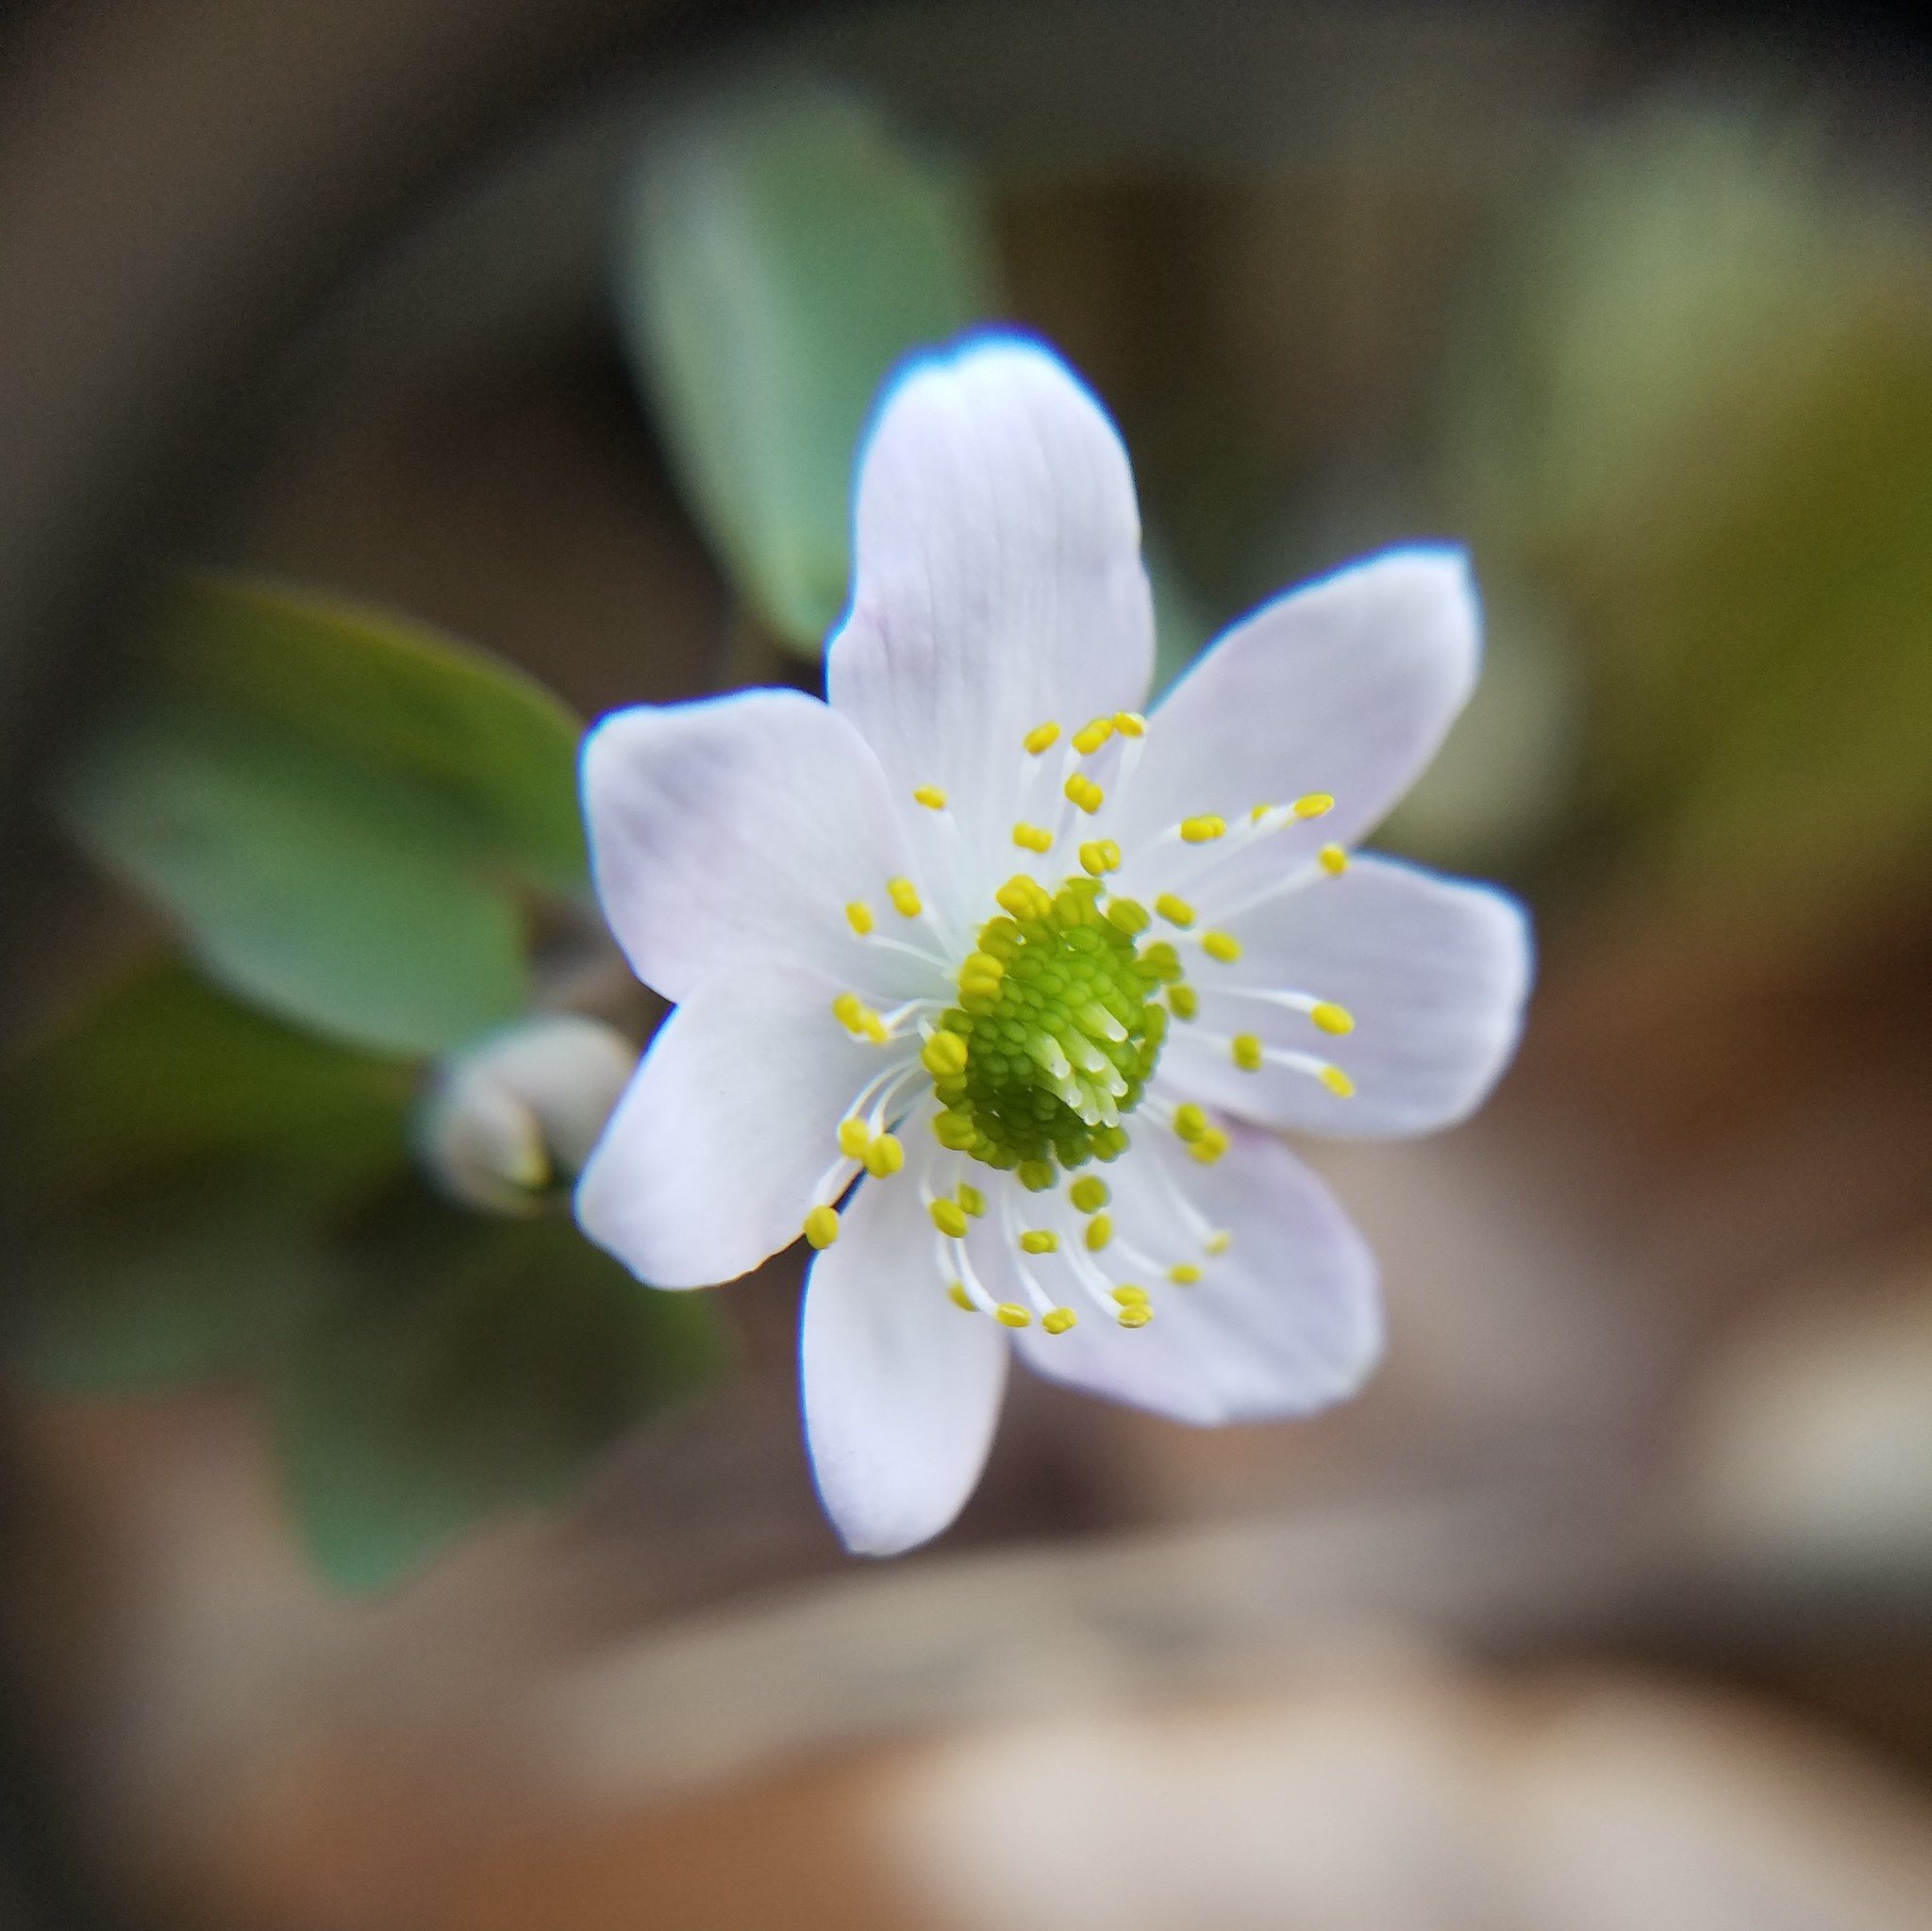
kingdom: Plantae
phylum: Tracheophyta
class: Magnoliopsida
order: Ranunculales
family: Ranunculaceae
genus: Thalictrum
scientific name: Thalictrum thalictroides
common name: Rue-anemone
